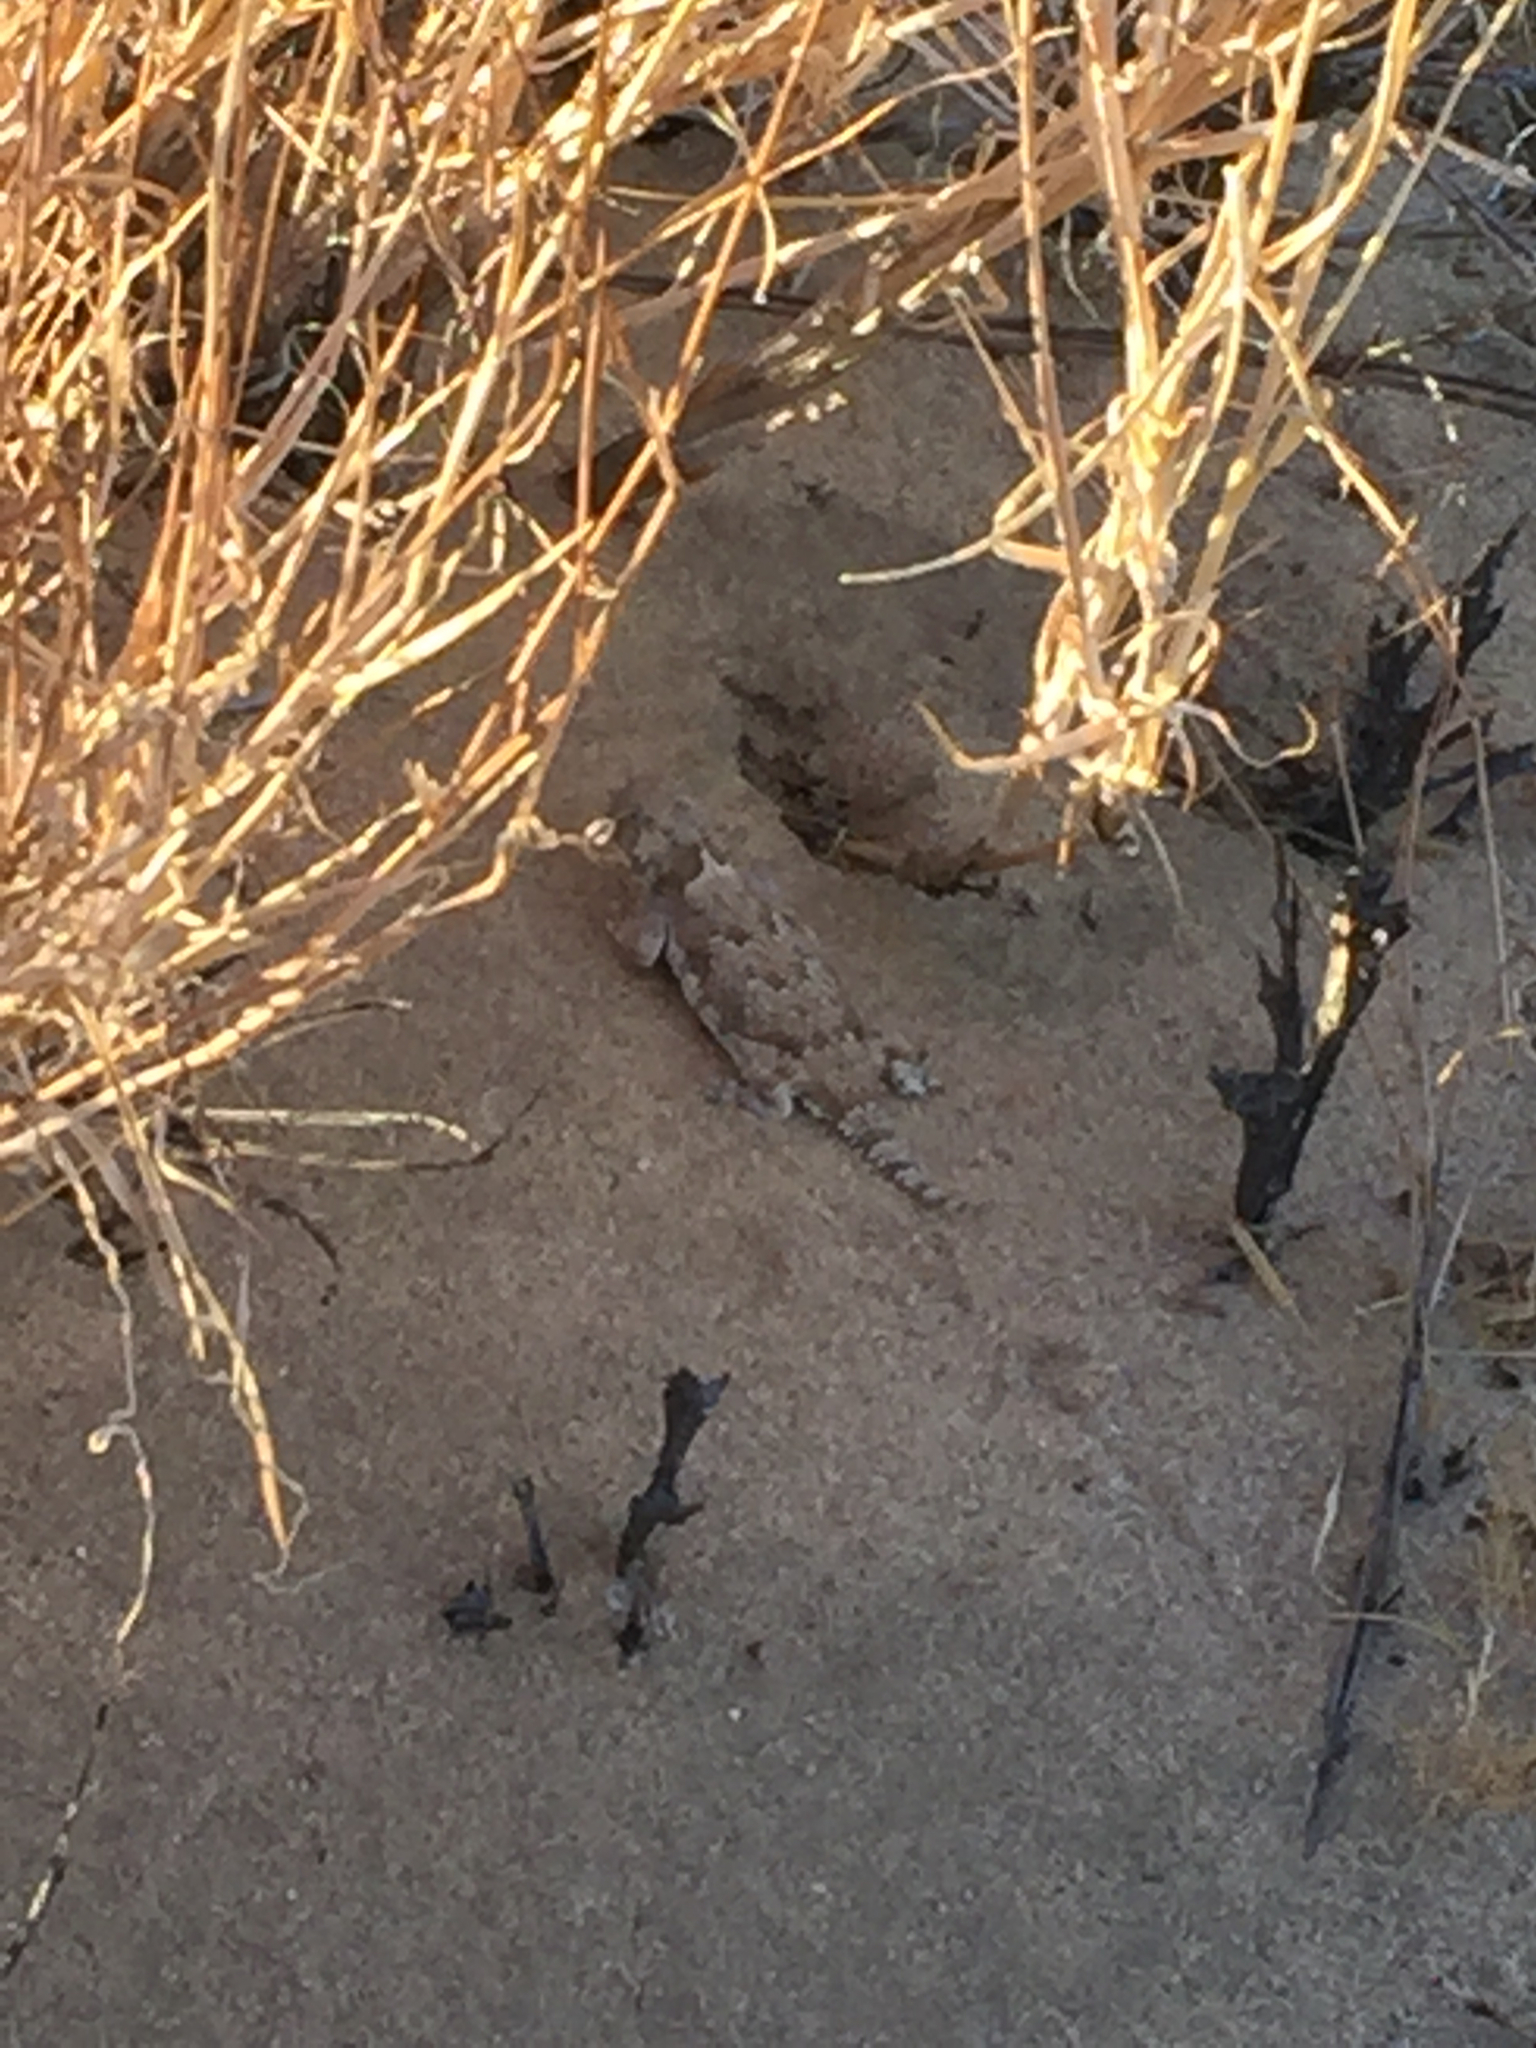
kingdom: Animalia
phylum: Chordata
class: Squamata
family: Phrynosomatidae
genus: Phrynosoma
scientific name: Phrynosoma platyrhinos
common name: Desert horned lizard
